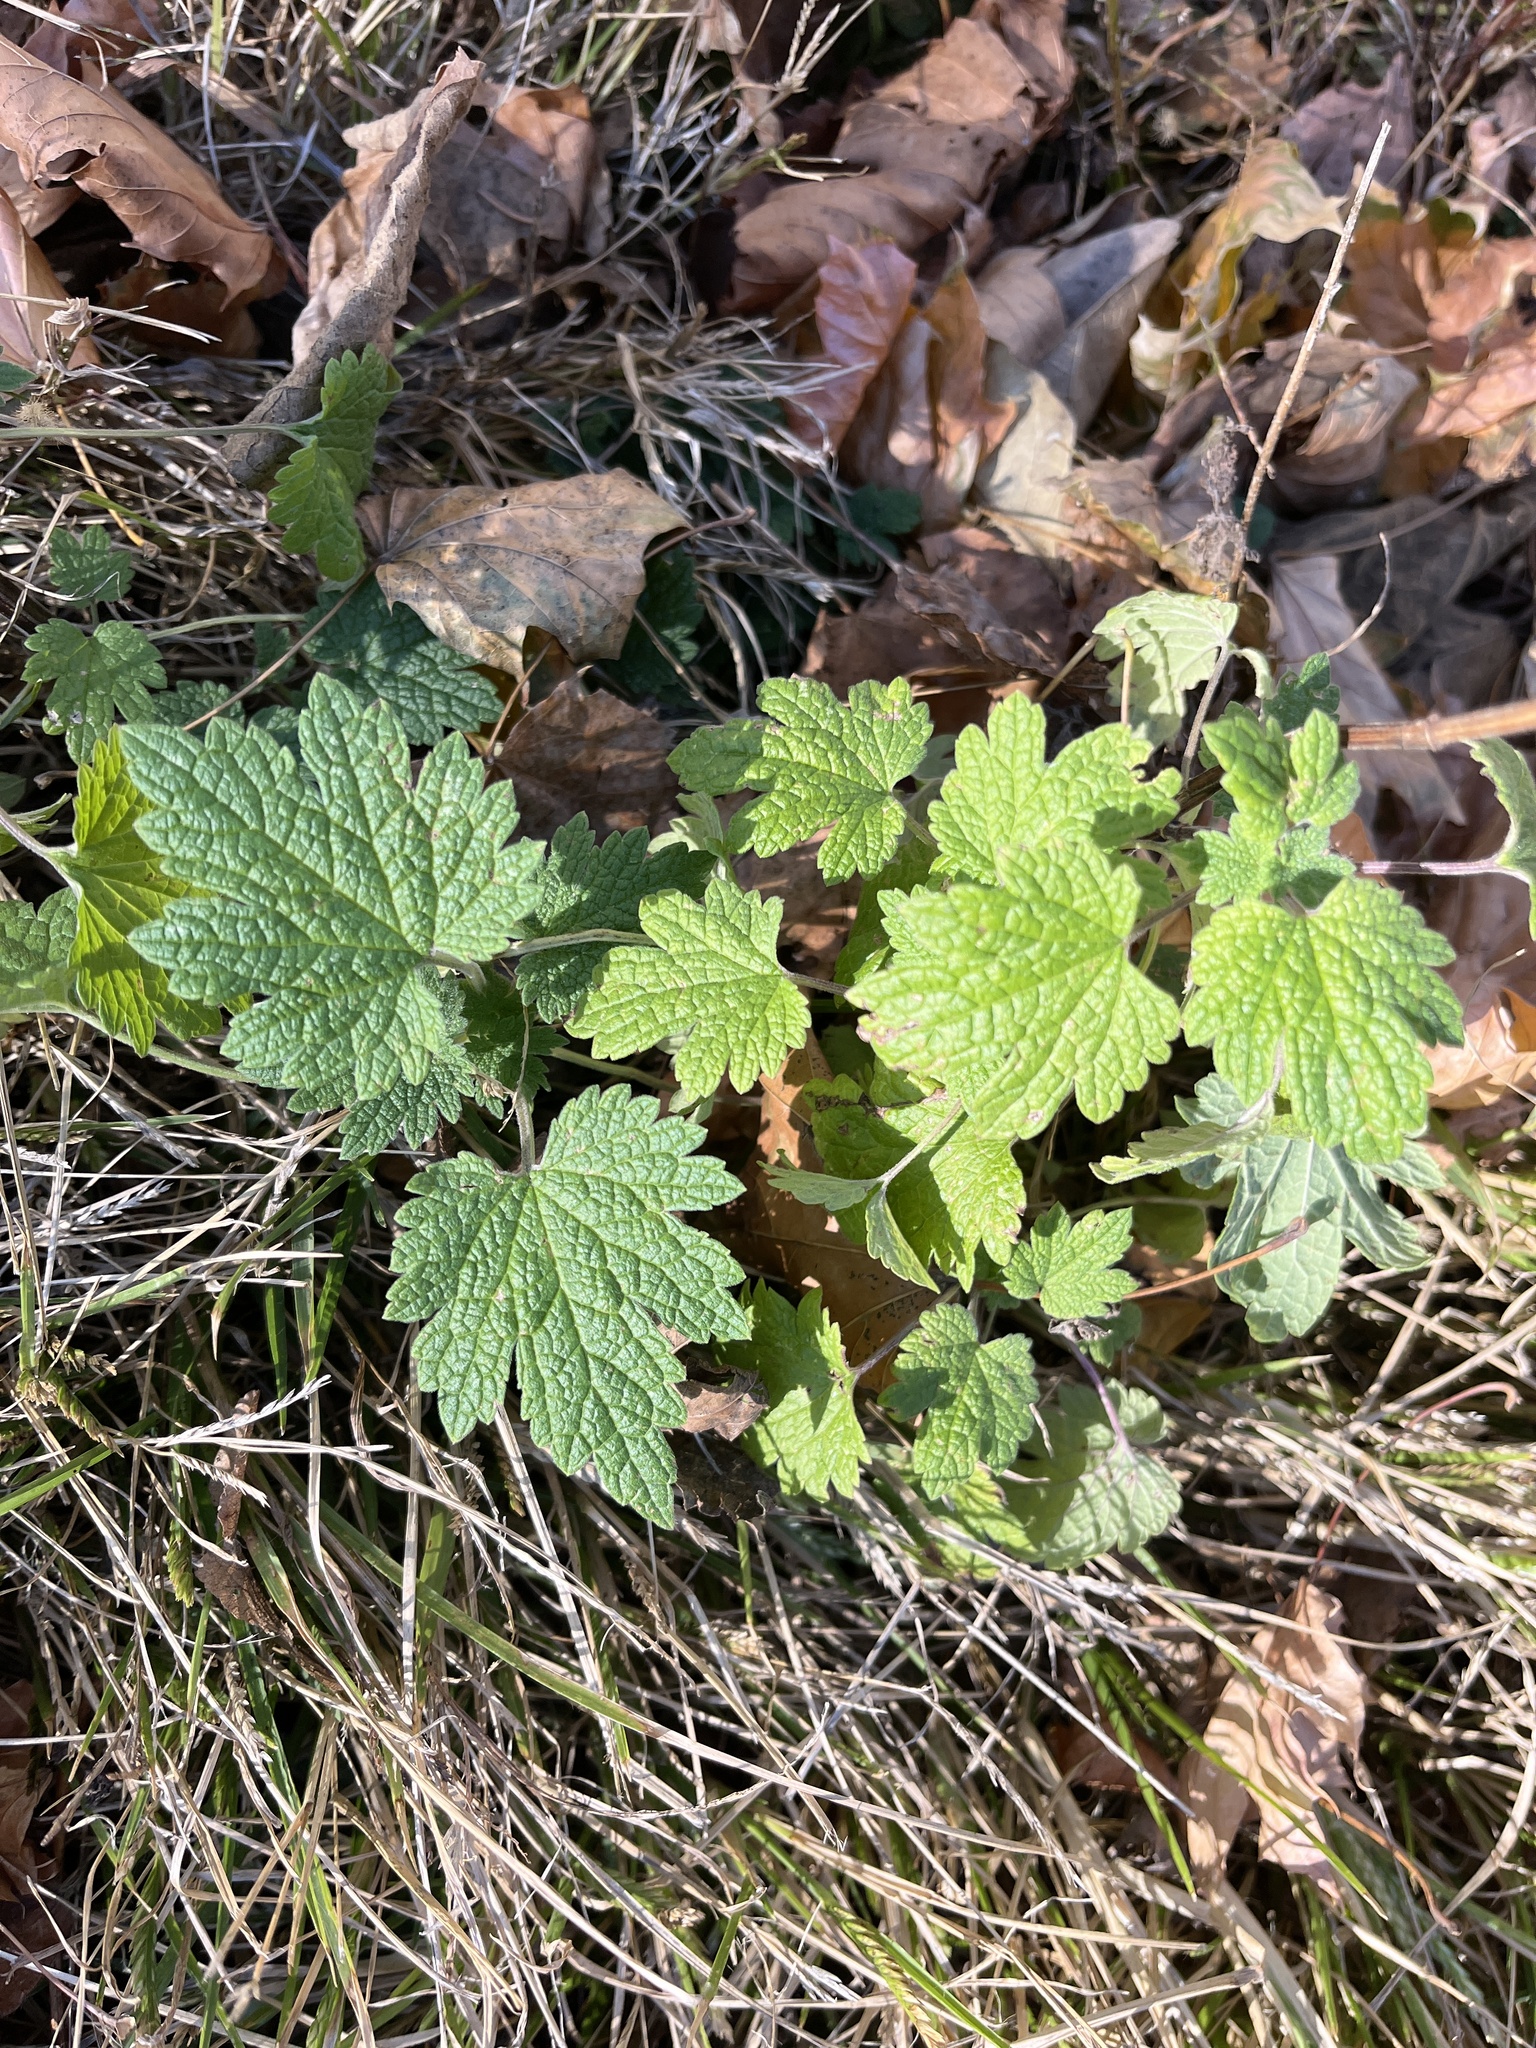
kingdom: Plantae
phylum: Tracheophyta
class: Magnoliopsida
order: Lamiales
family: Lamiaceae
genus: Leonurus
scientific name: Leonurus cardiaca
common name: Motherwort
